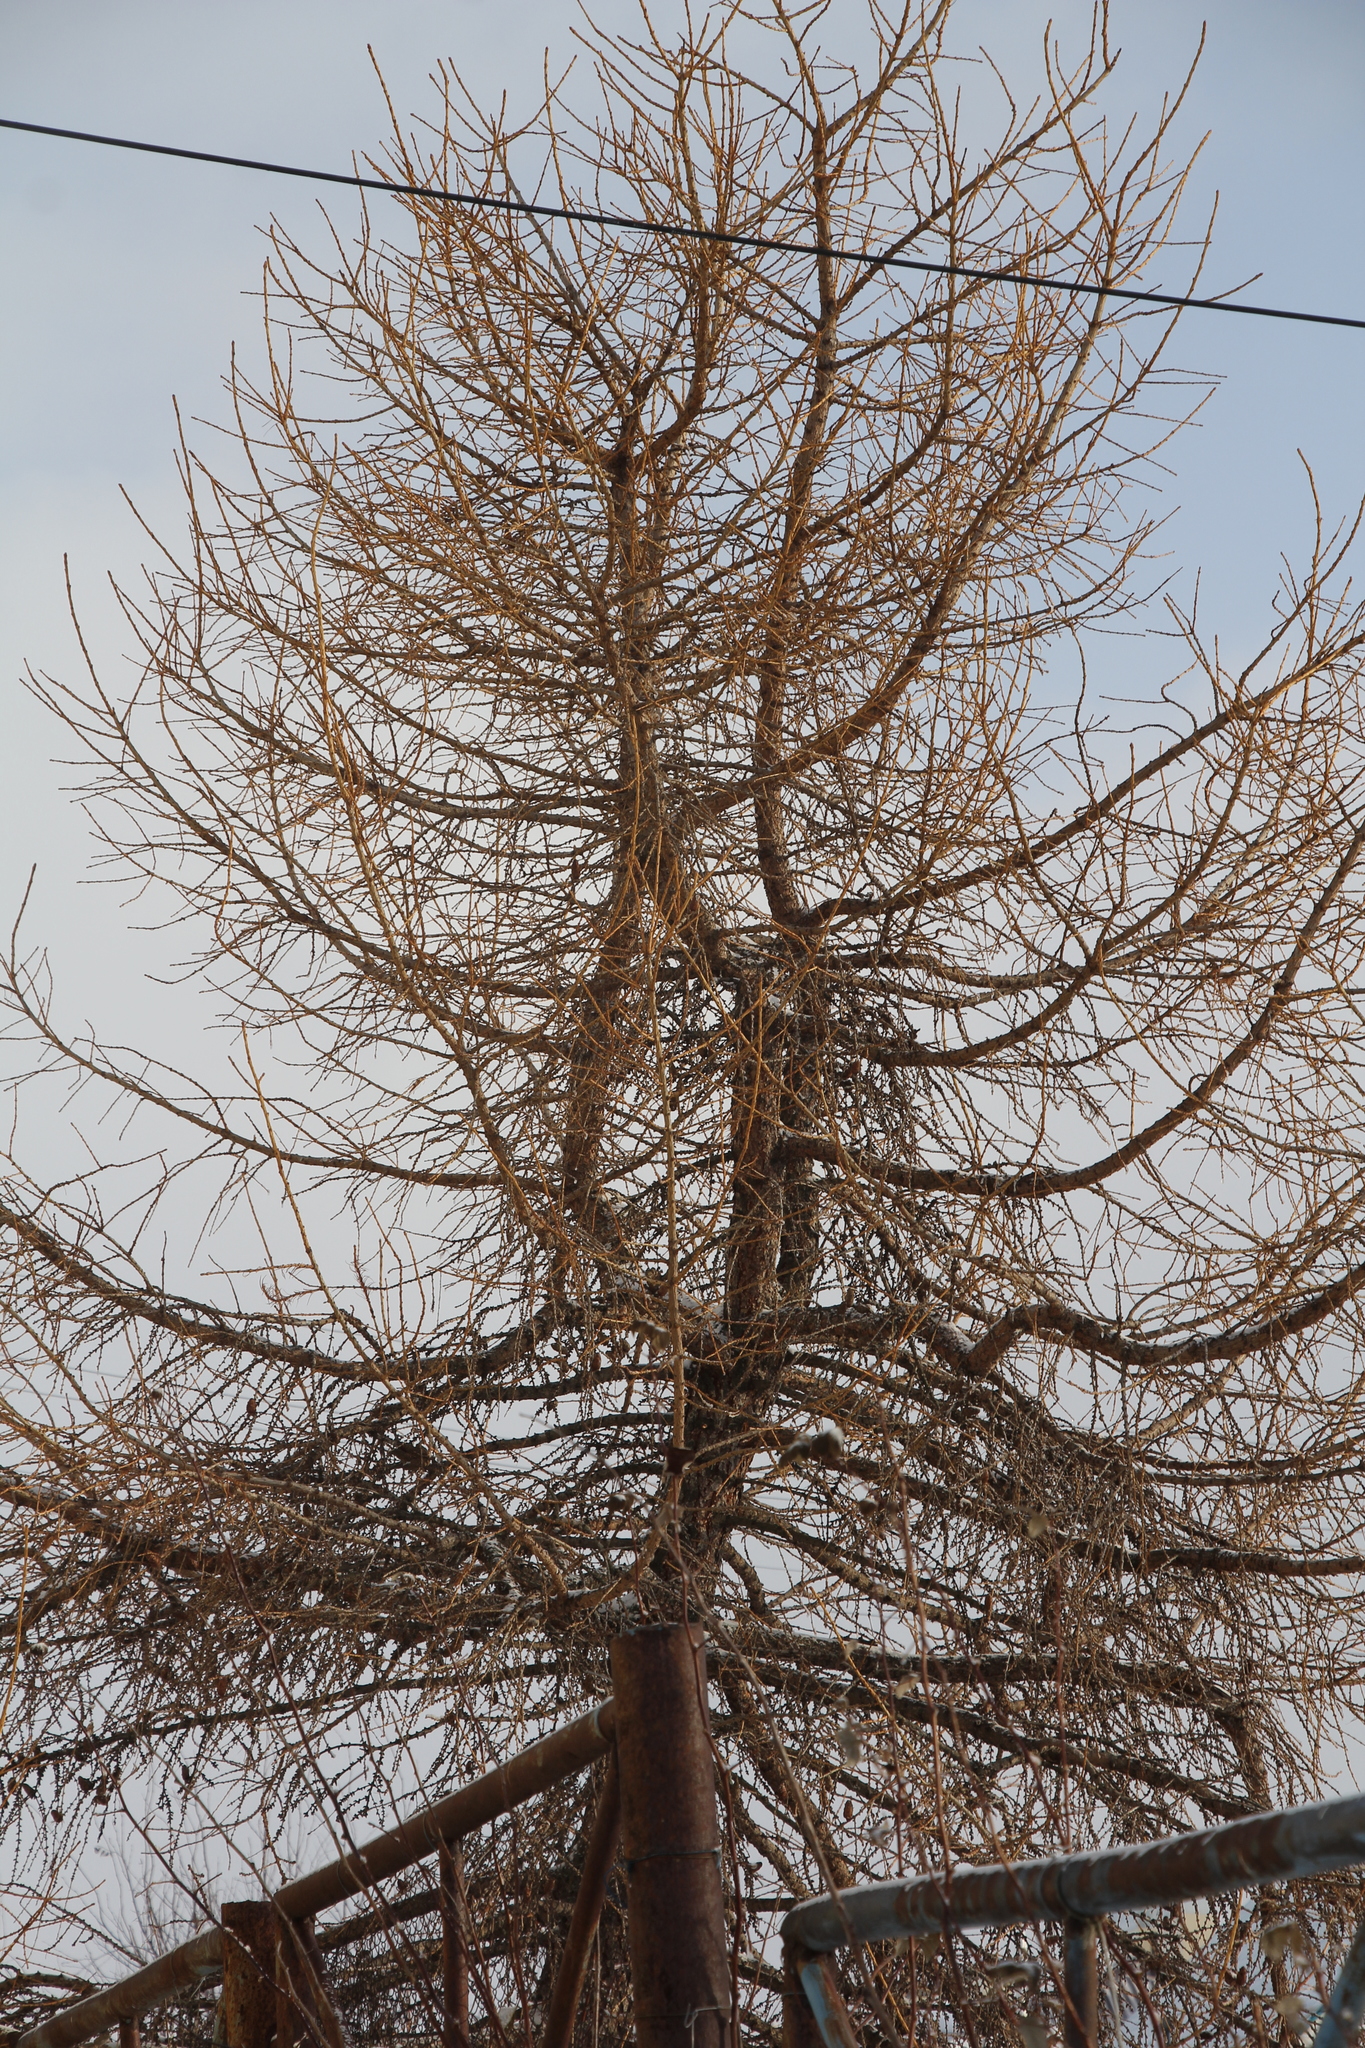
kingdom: Plantae
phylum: Tracheophyta
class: Pinopsida
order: Pinales
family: Pinaceae
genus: Larix
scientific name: Larix sibirica
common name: Siberian larch
